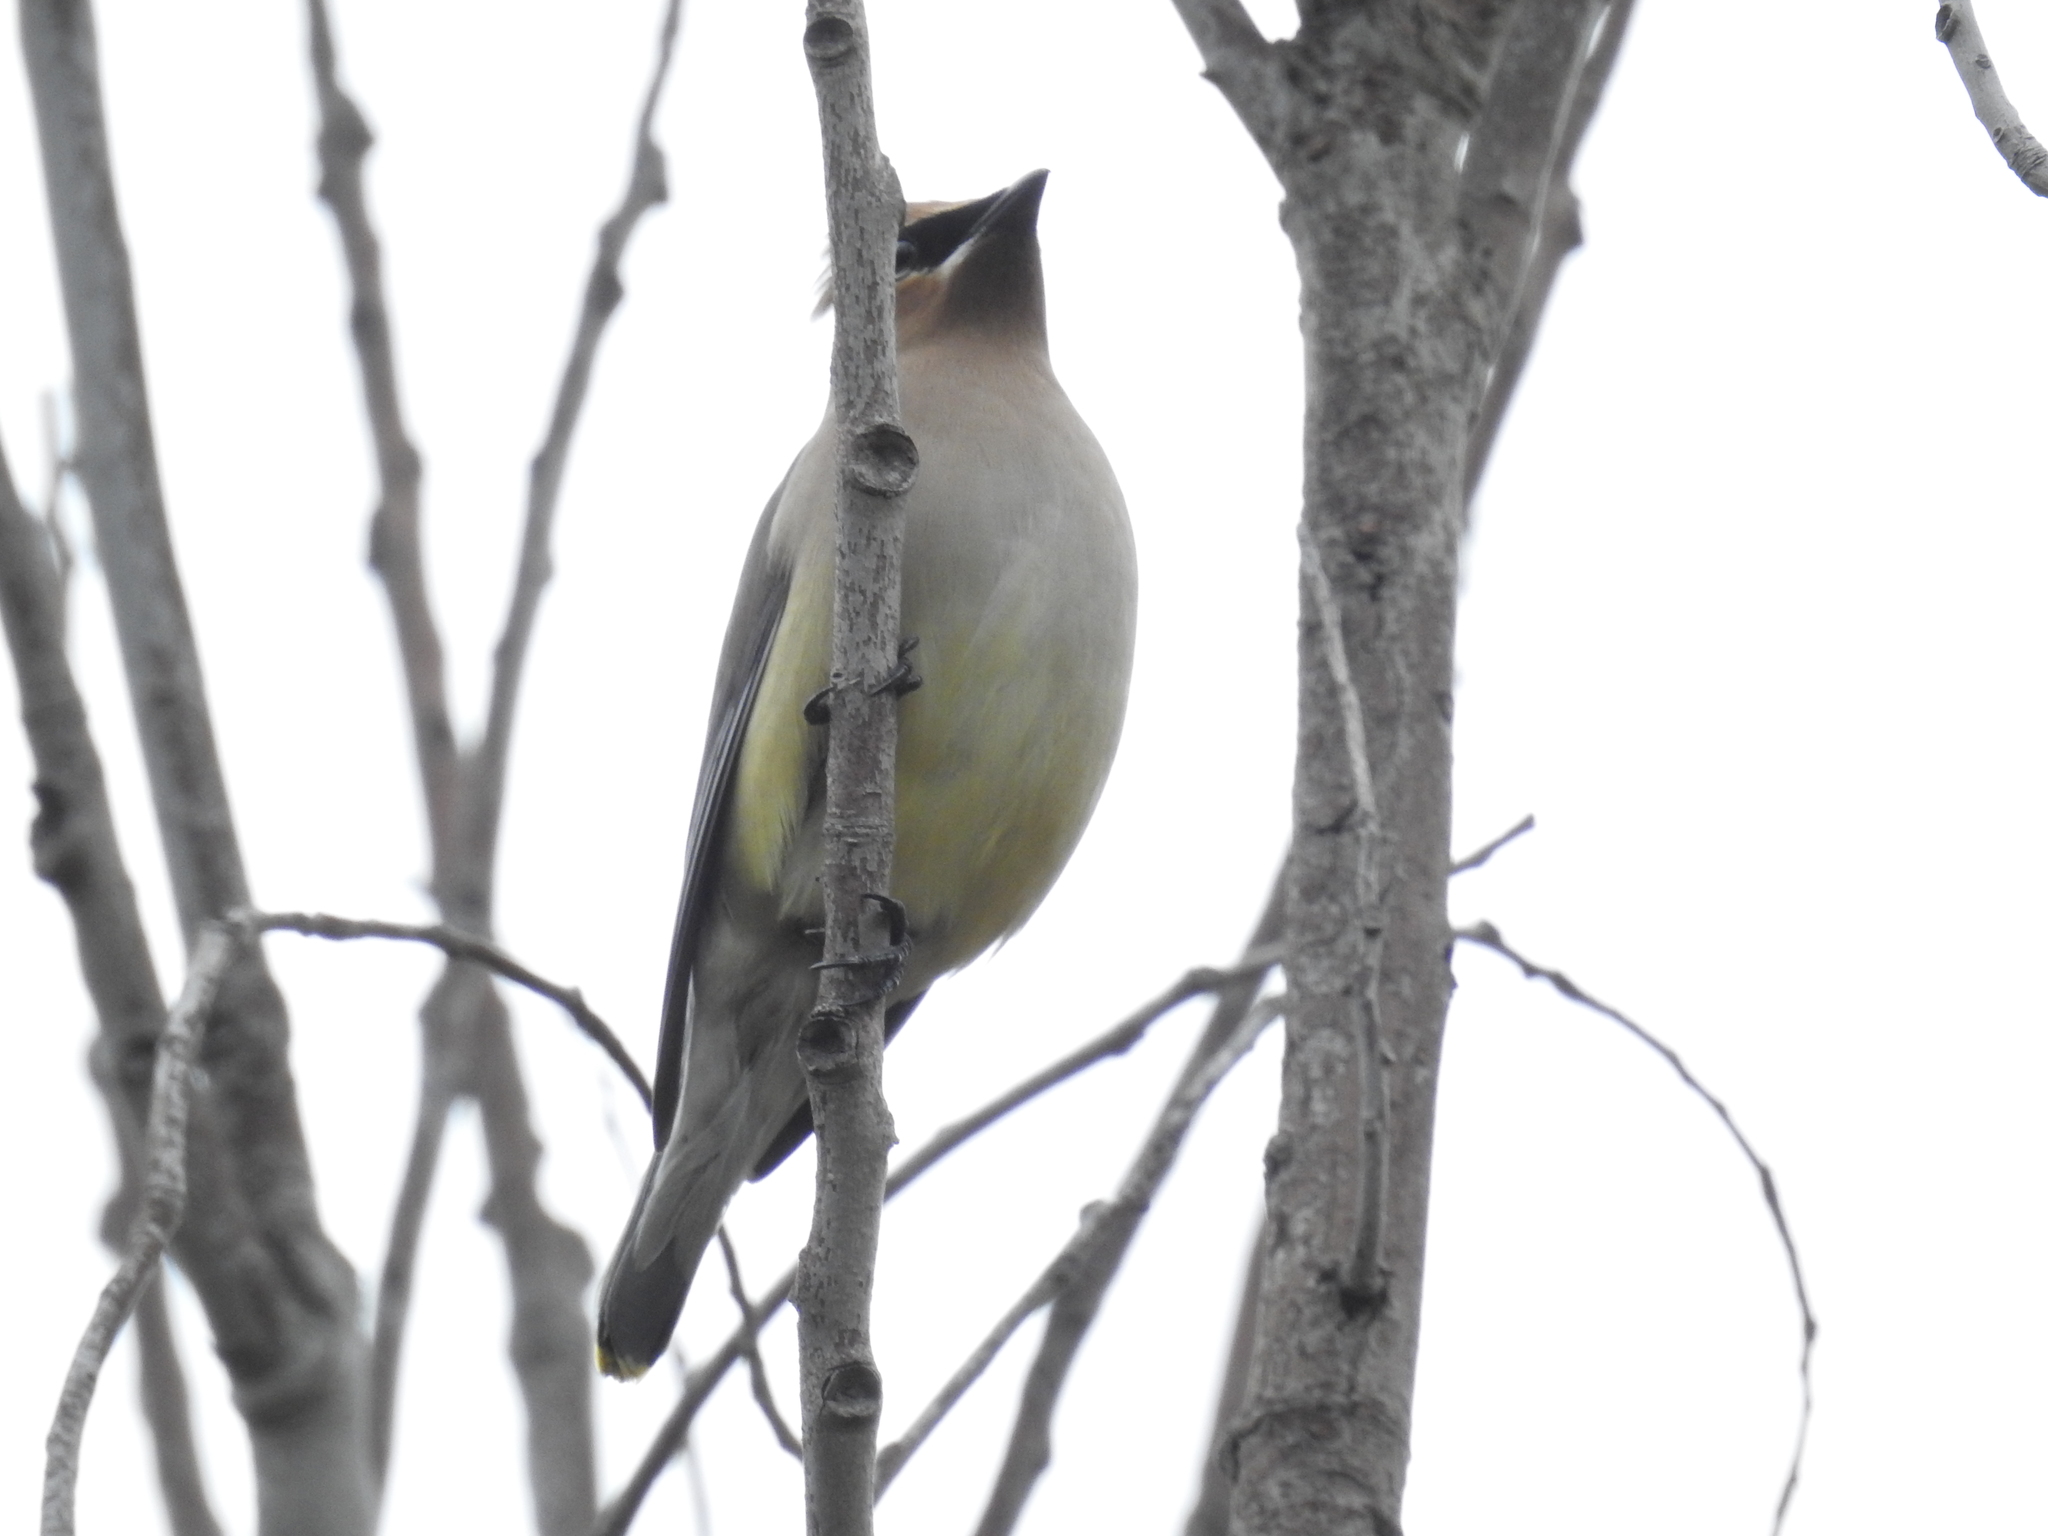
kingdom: Animalia
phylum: Chordata
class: Aves
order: Passeriformes
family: Bombycillidae
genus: Bombycilla
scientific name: Bombycilla cedrorum
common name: Cedar waxwing
